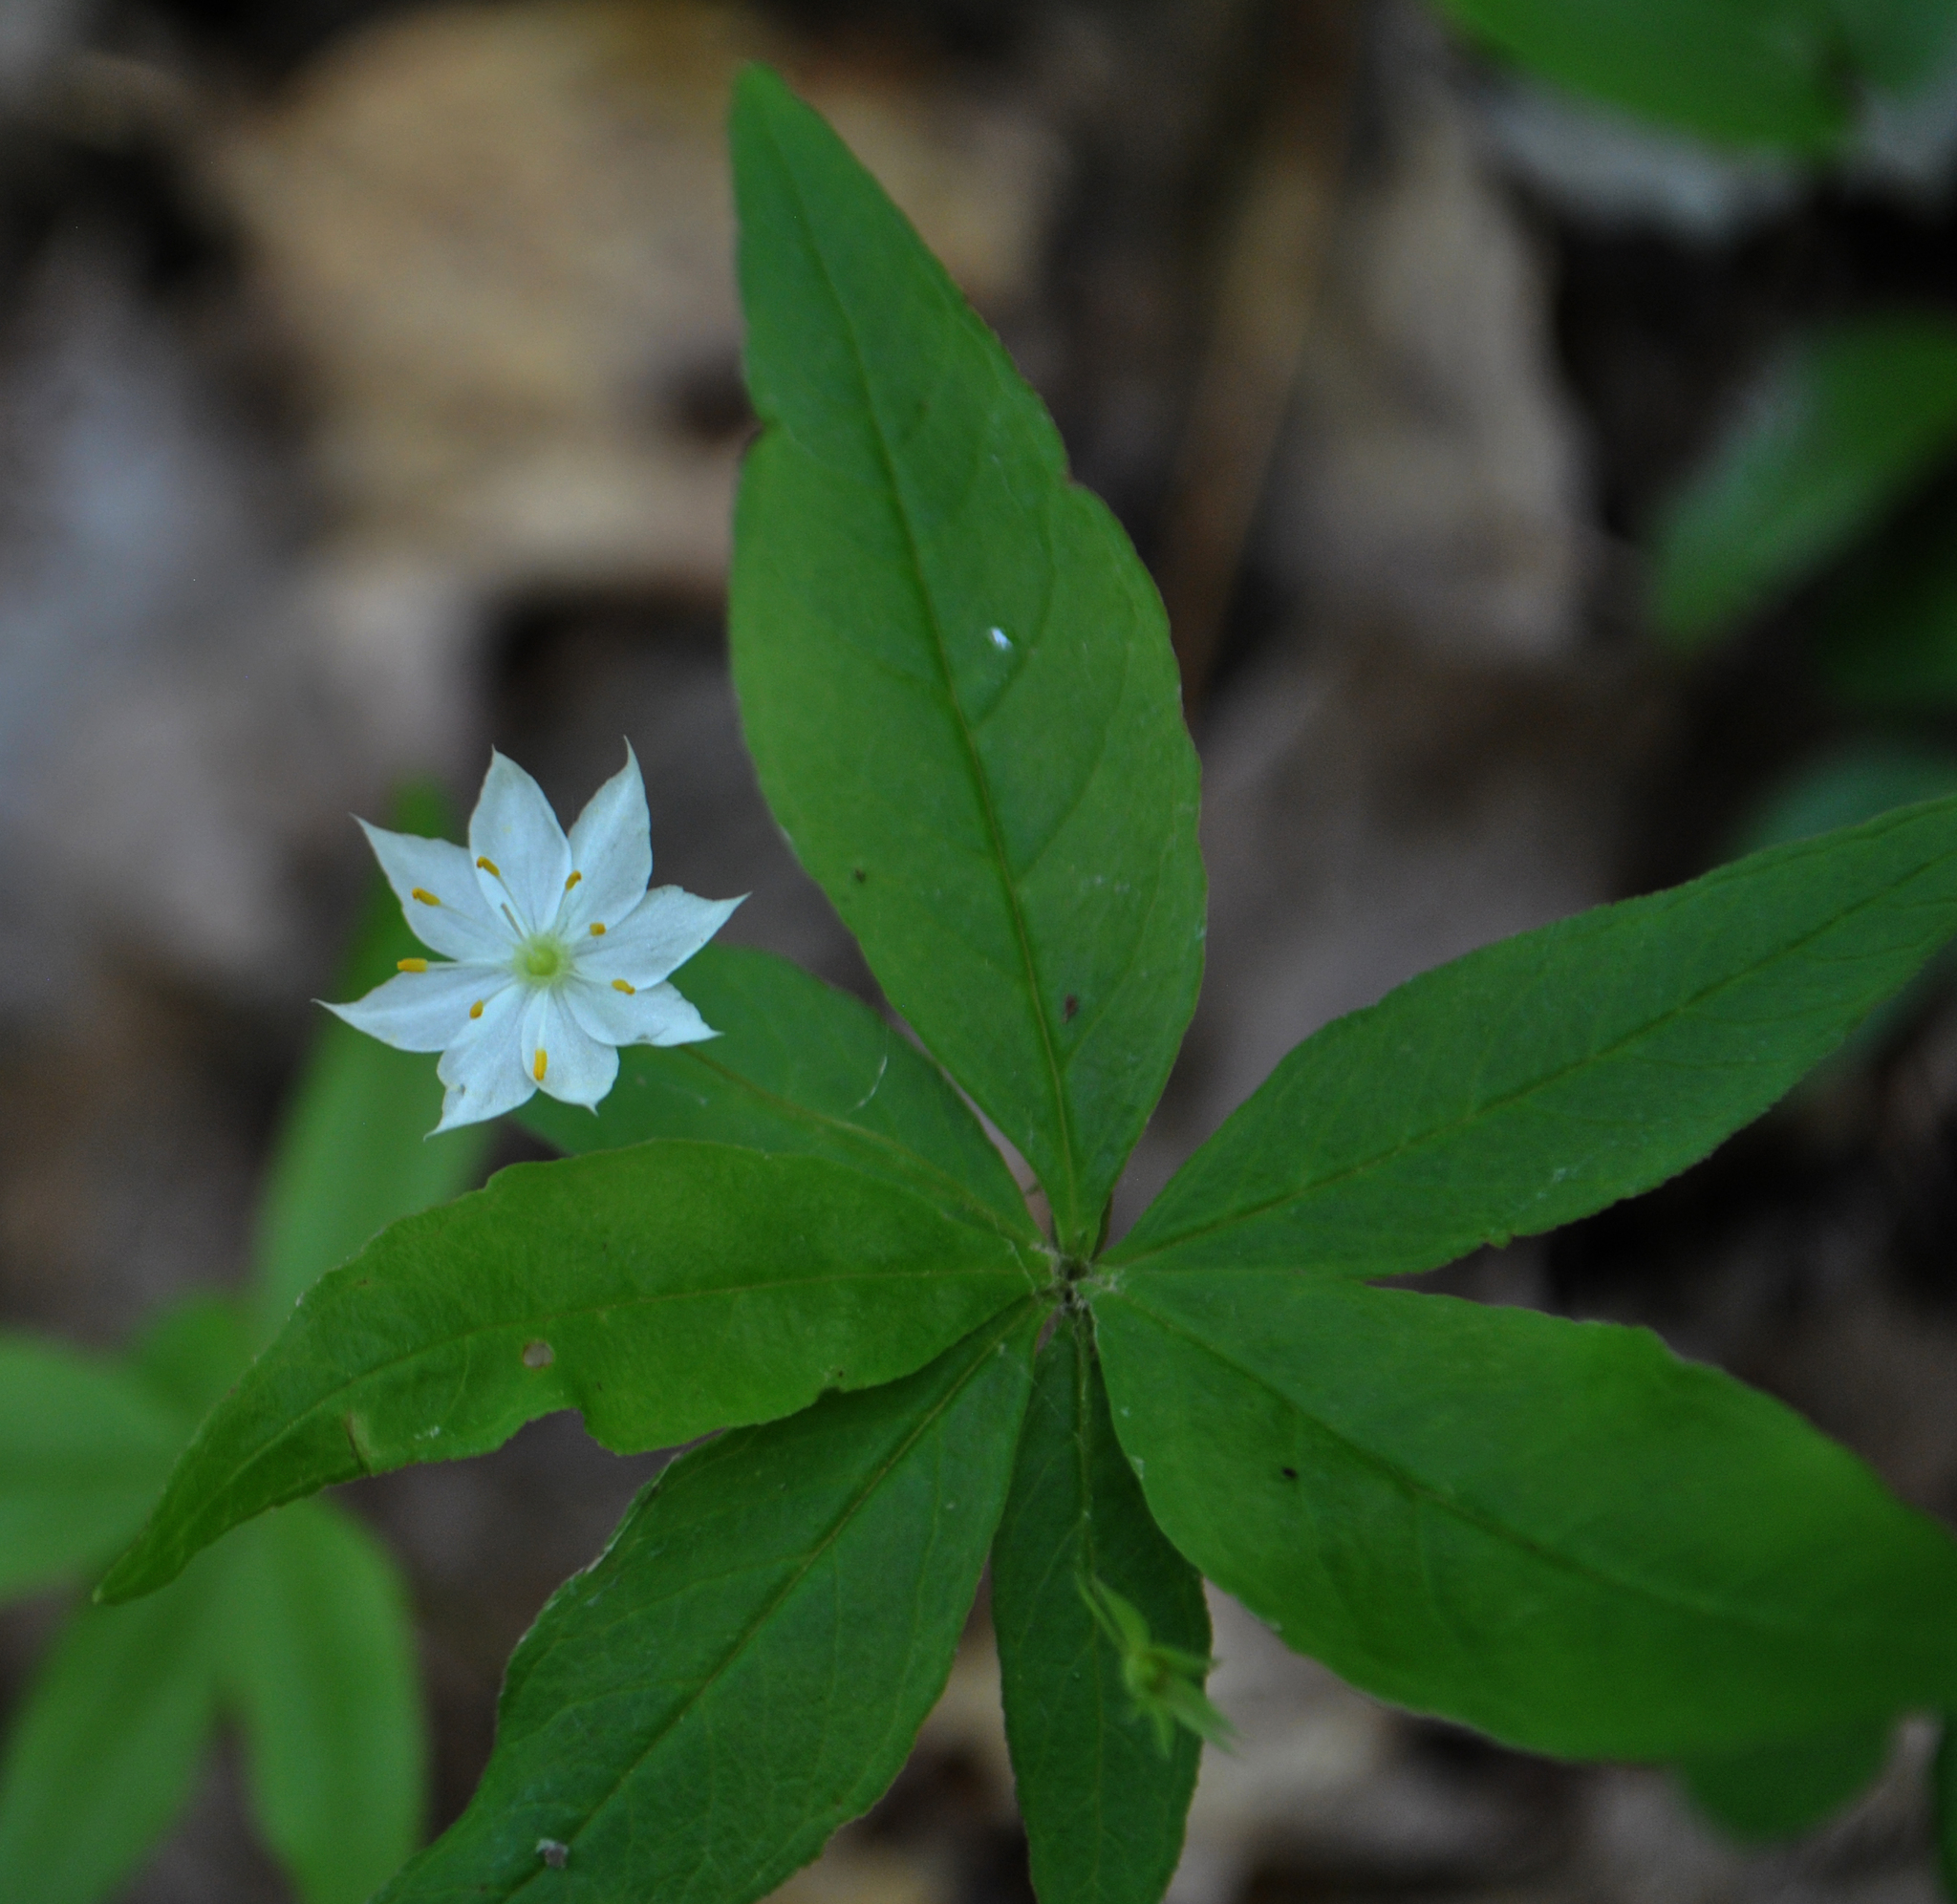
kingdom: Plantae
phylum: Tracheophyta
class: Magnoliopsida
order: Ericales
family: Primulaceae
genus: Lysimachia
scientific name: Lysimachia borealis
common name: American starflower
